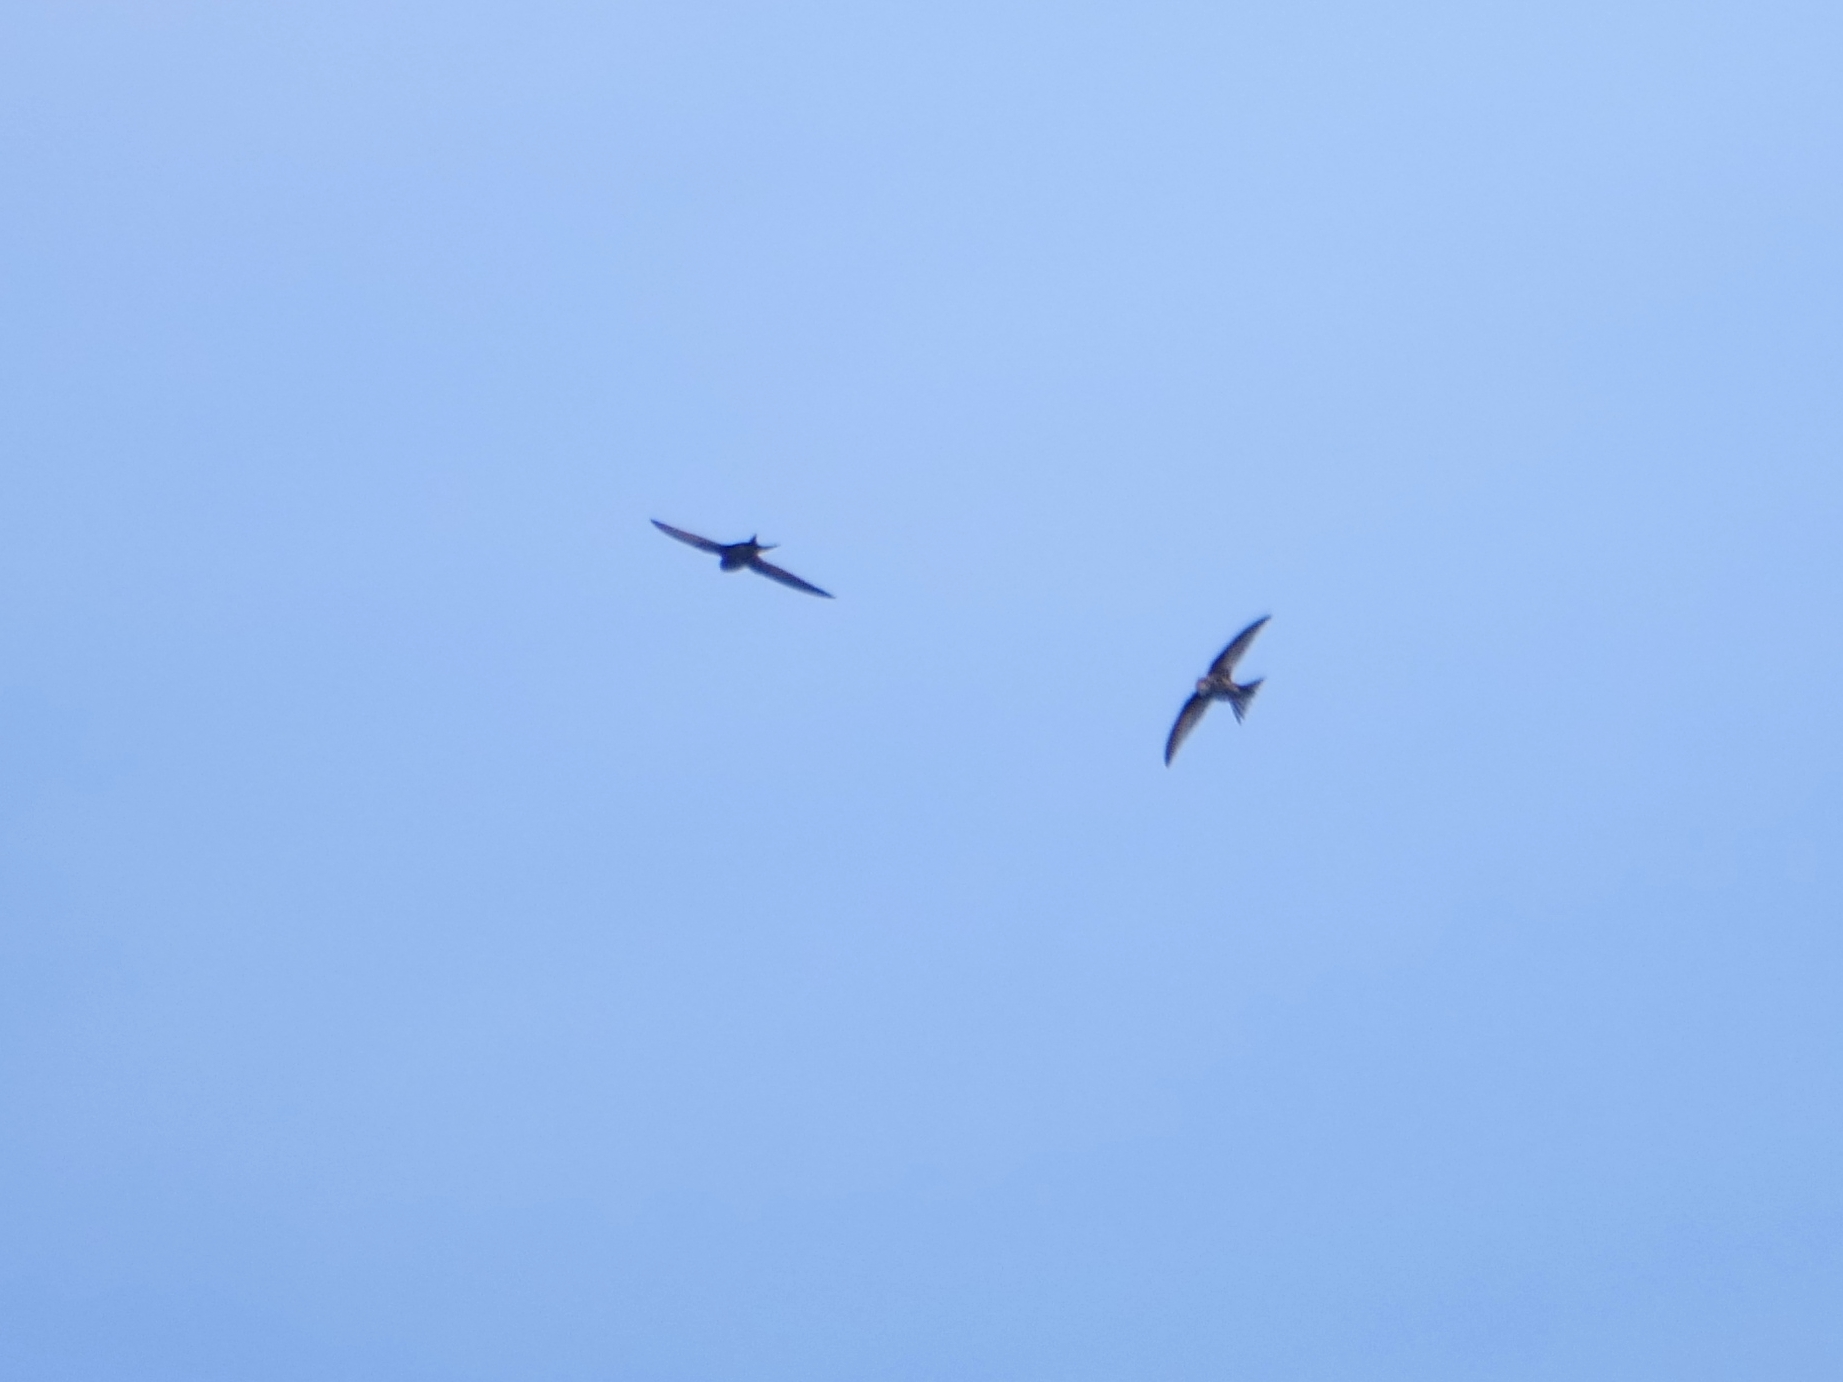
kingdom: Animalia
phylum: Chordata
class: Aves
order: Apodiformes
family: Apodidae
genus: Apus
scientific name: Apus apus
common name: Common swift
